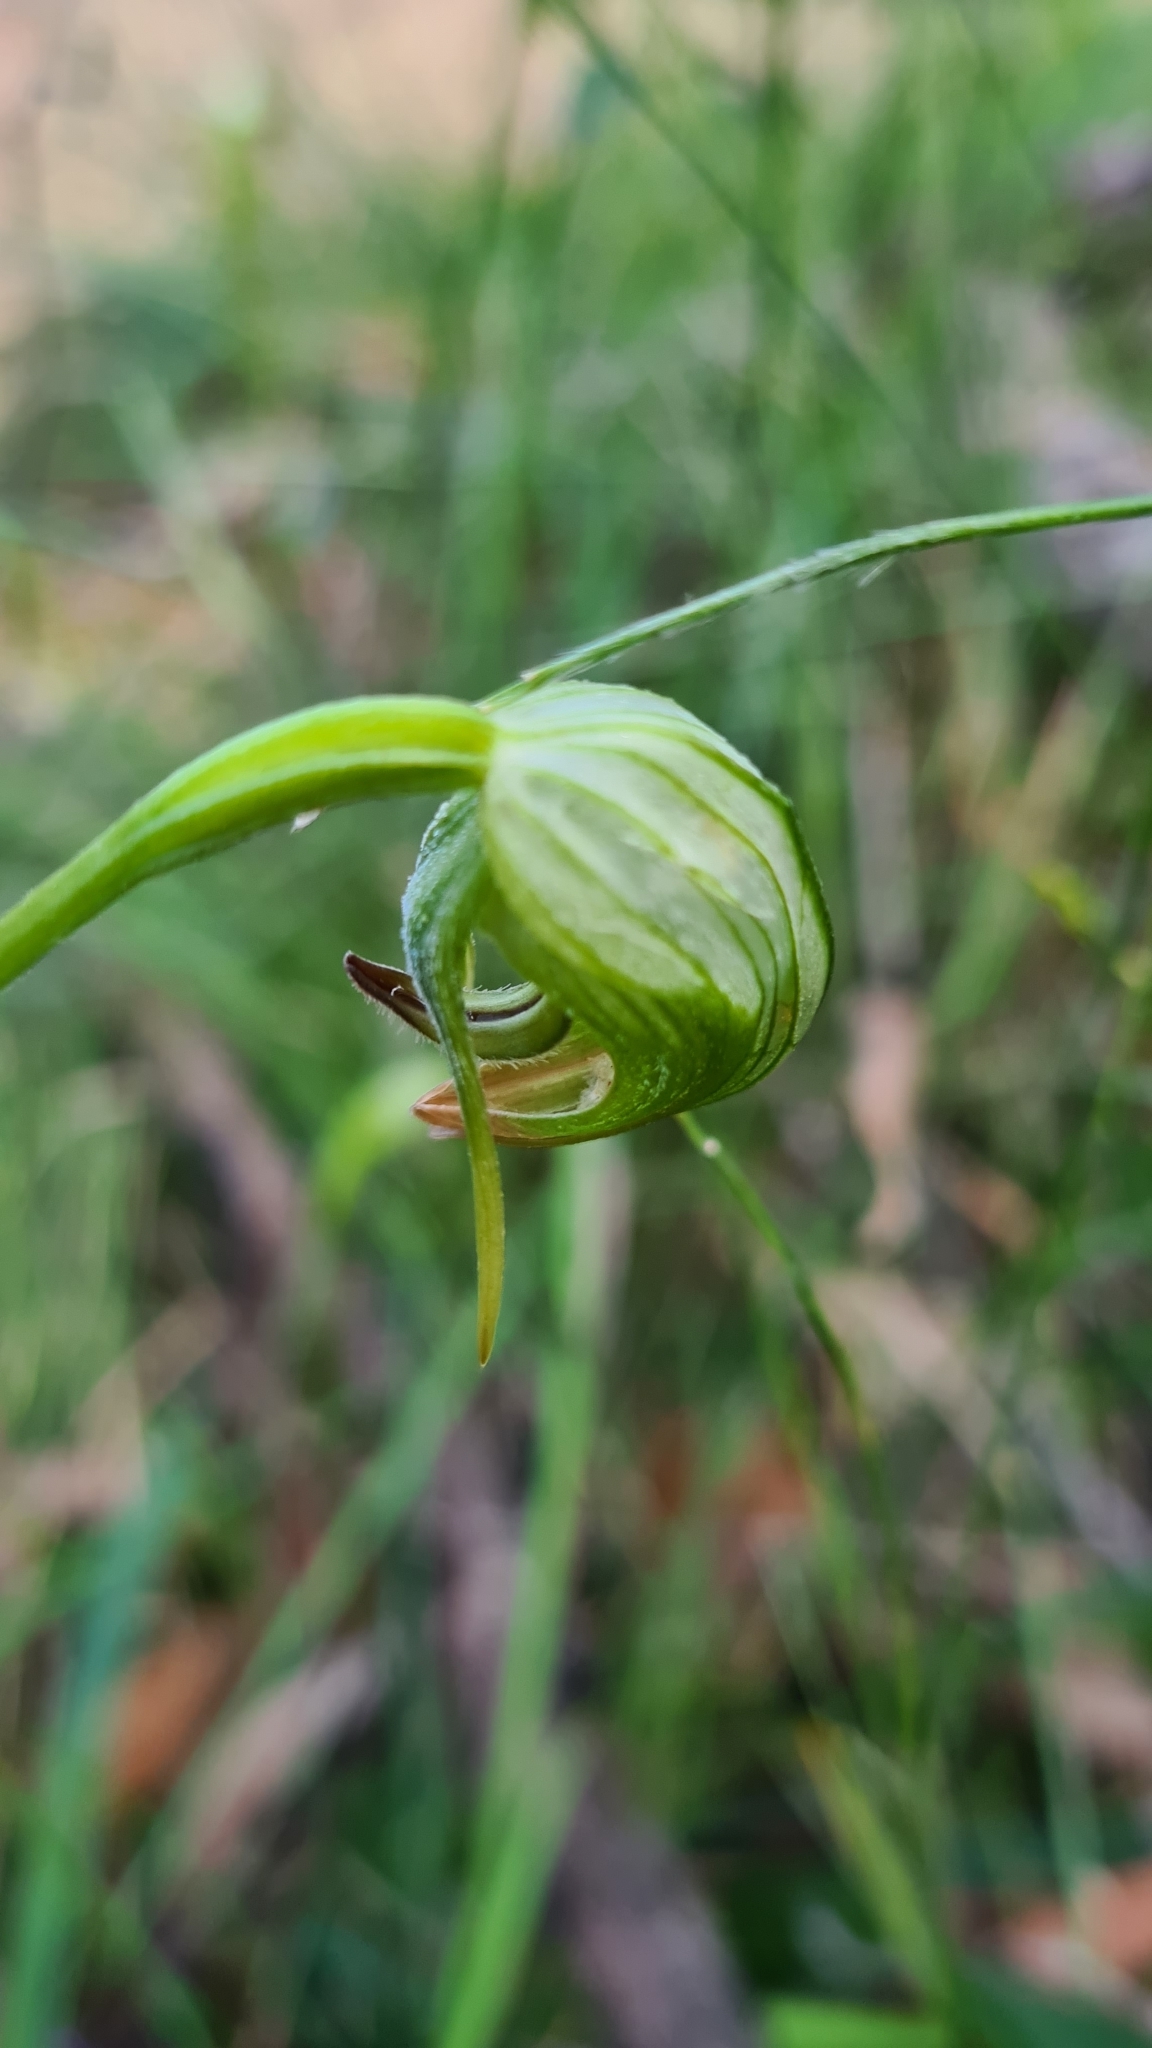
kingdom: Plantae
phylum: Tracheophyta
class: Liliopsida
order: Asparagales
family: Orchidaceae
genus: Pterostylis
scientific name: Pterostylis nutans
